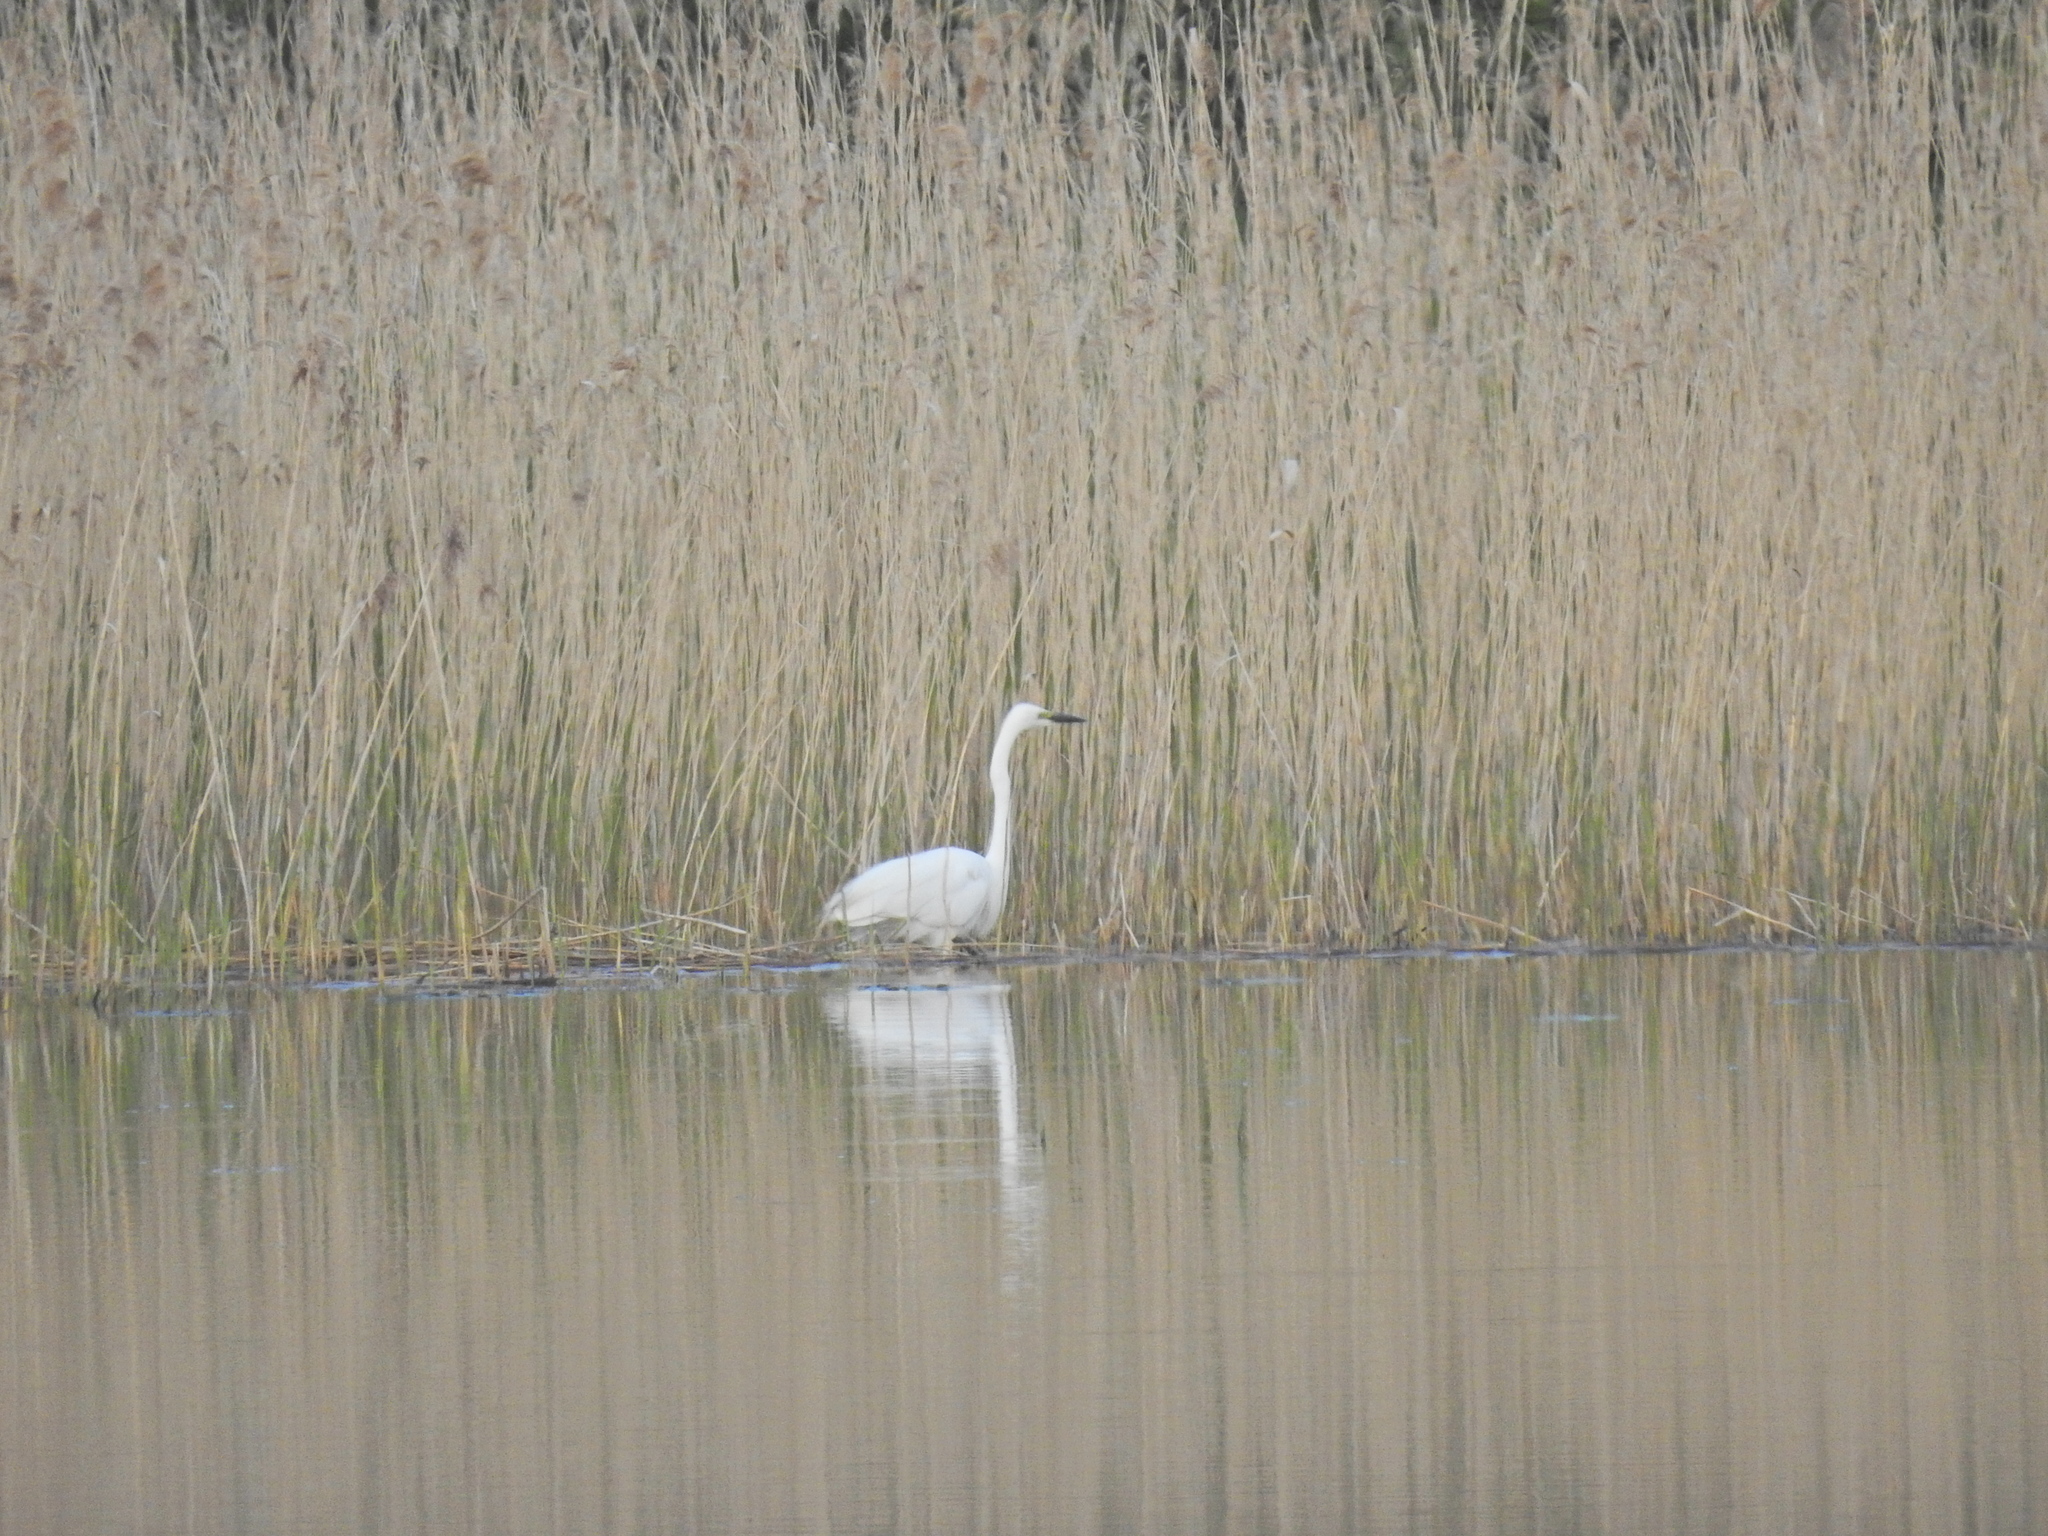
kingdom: Animalia
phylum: Chordata
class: Aves
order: Pelecaniformes
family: Ardeidae
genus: Ardea
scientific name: Ardea alba
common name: Great egret
